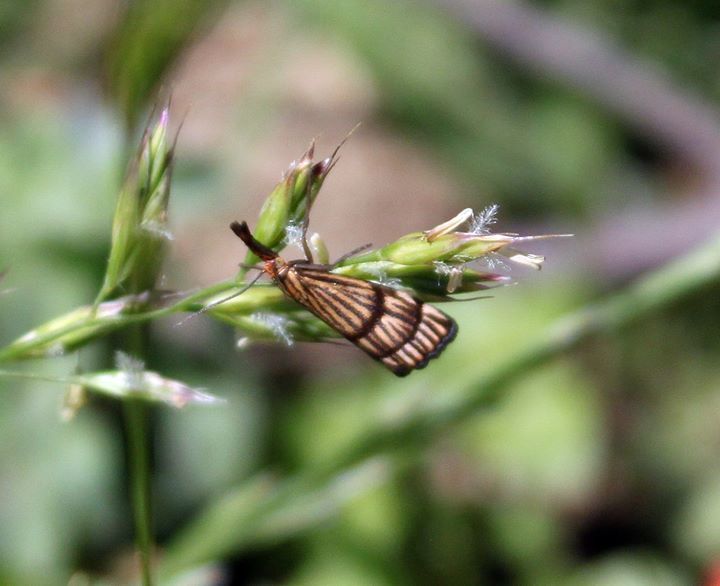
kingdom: Animalia
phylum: Arthropoda
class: Insecta
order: Lepidoptera
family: Crambidae
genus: Chrysocrambus
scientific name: Chrysocrambus linetella
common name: Orange-bar grass-veneer
